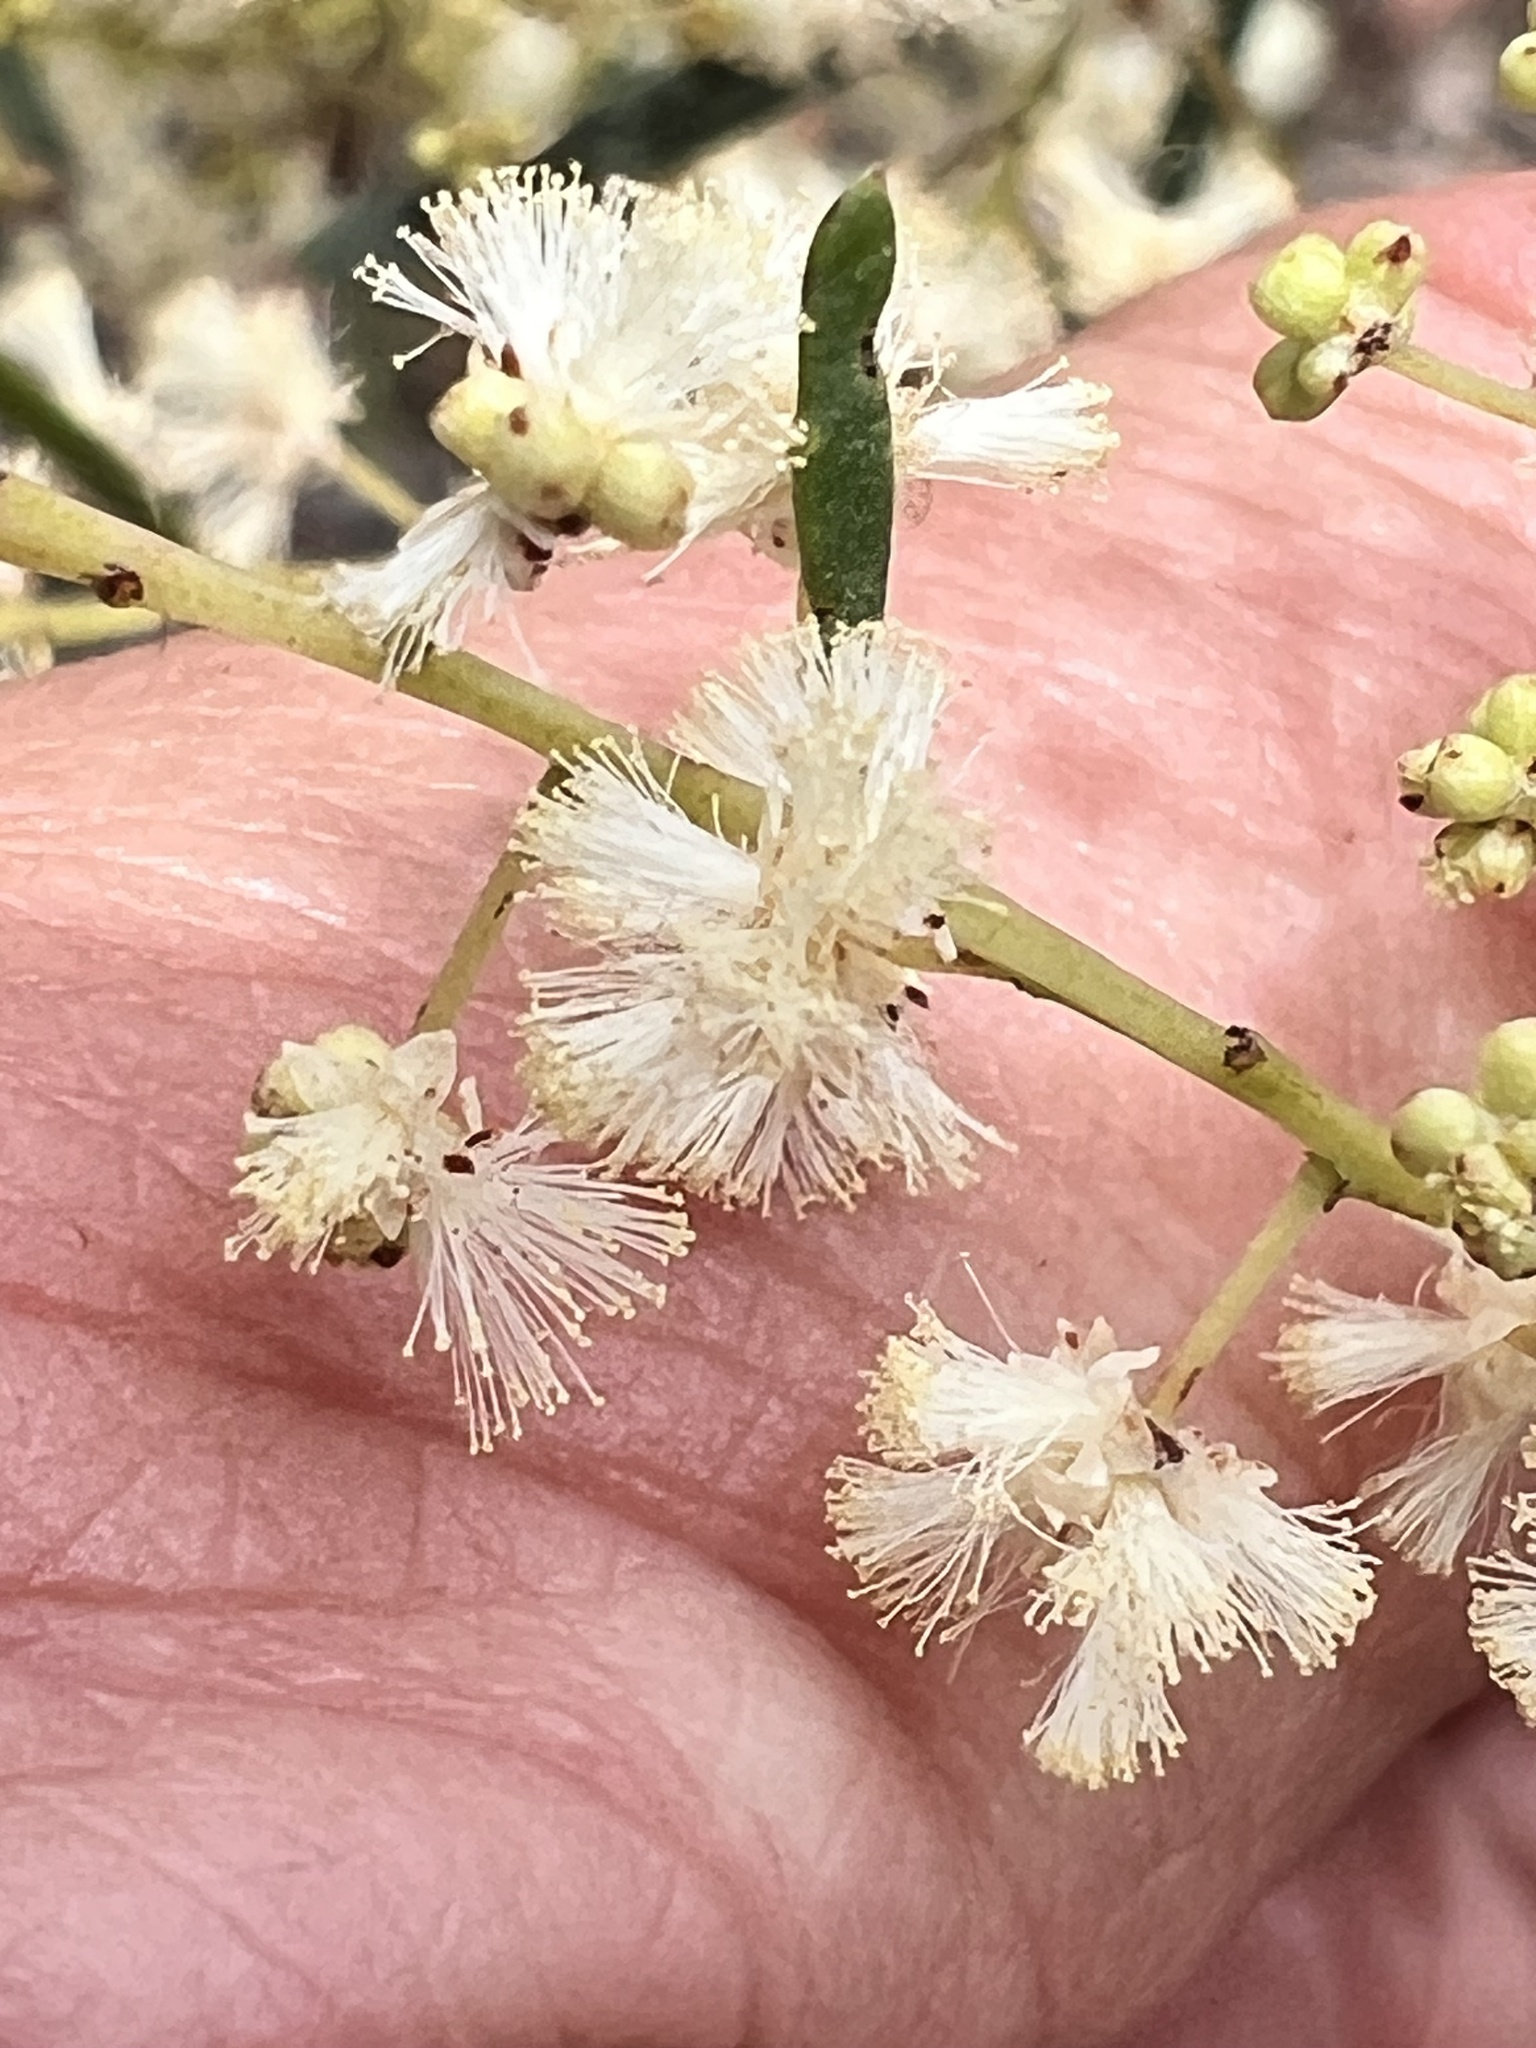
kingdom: Plantae
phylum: Tracheophyta
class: Magnoliopsida
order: Fabales
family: Fabaceae
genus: Acacia
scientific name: Acacia linifolia
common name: White wattle
